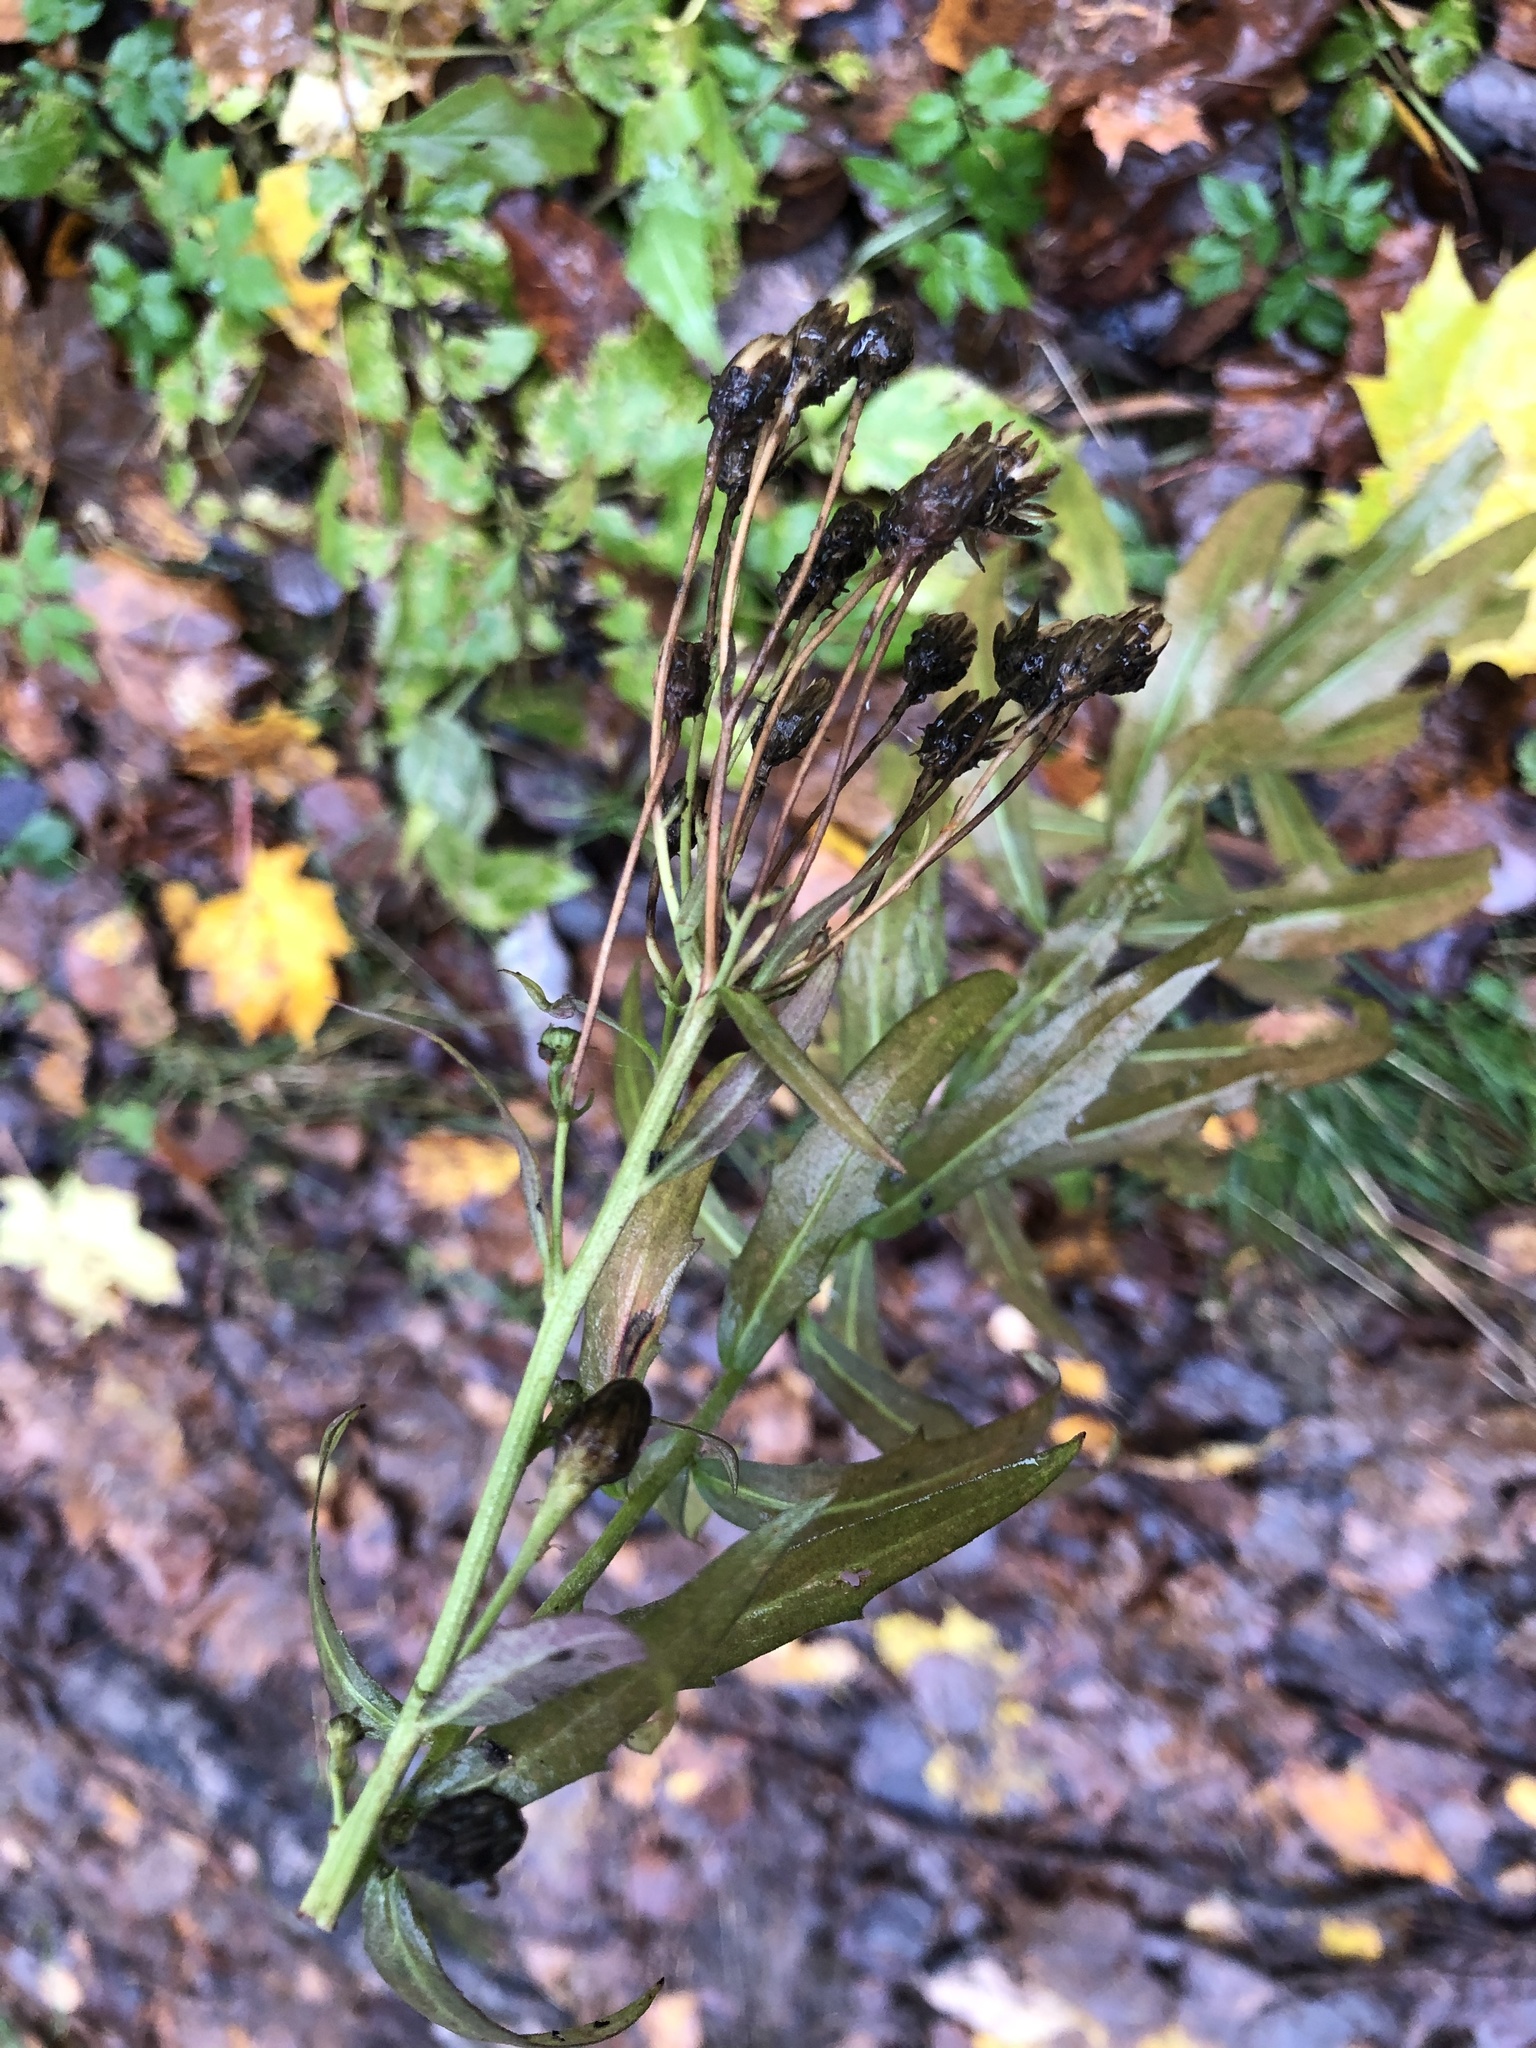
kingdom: Plantae
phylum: Tracheophyta
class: Magnoliopsida
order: Asterales
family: Asteraceae
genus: Hieracium
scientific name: Hieracium umbellatum
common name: Northern hawkweed
